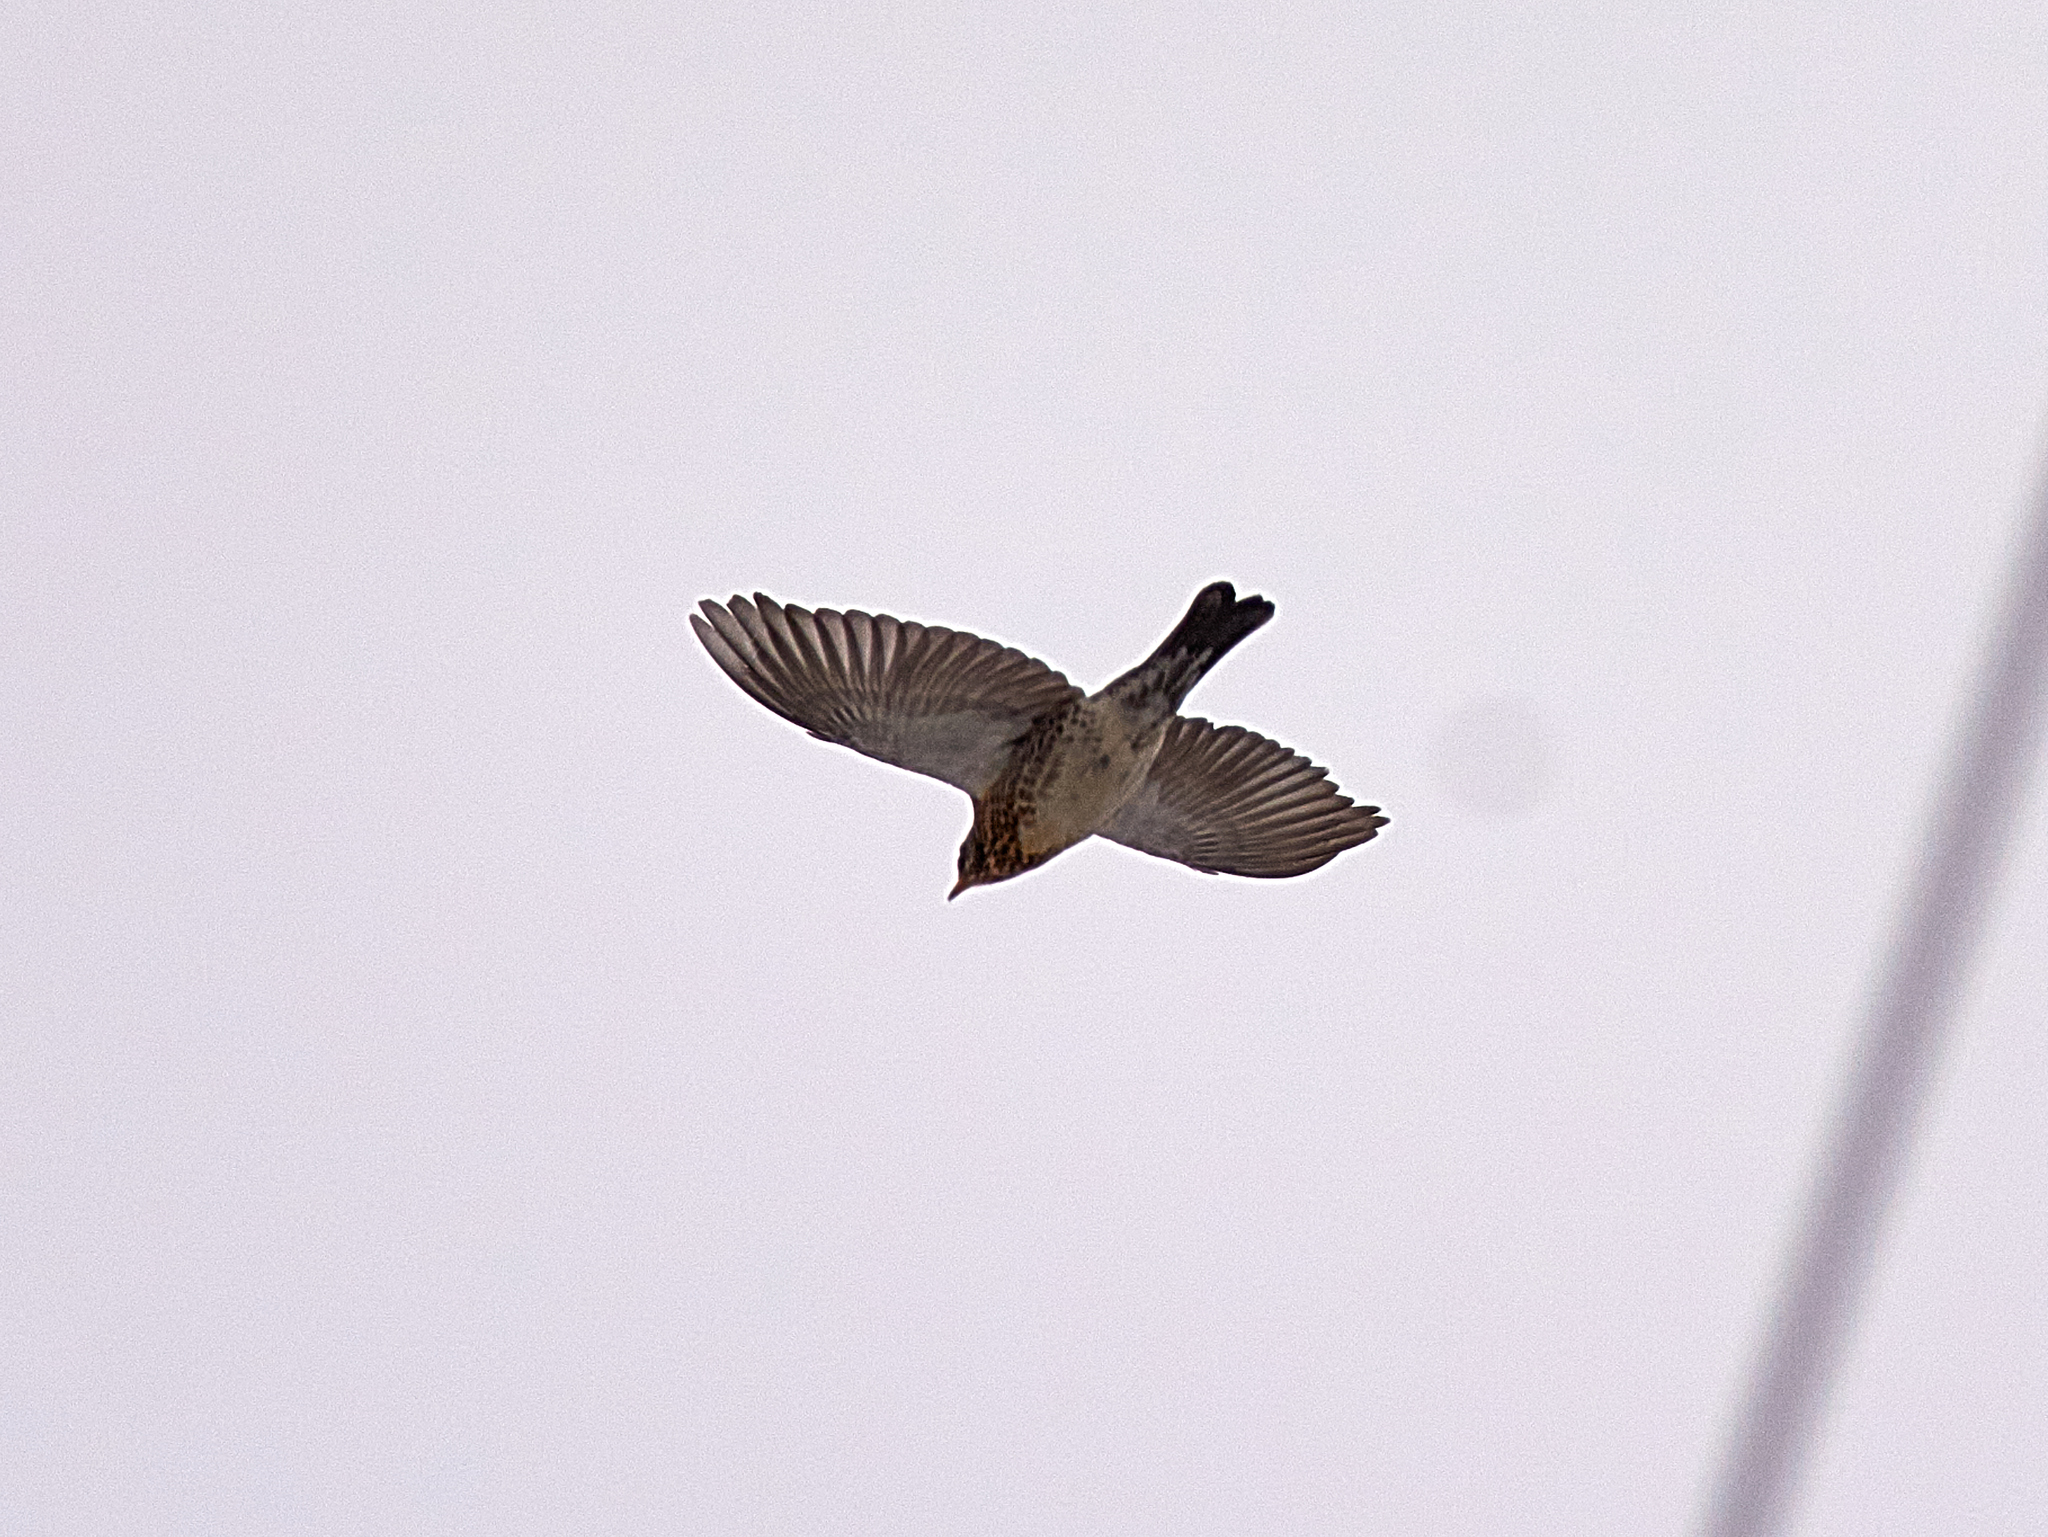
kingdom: Animalia
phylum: Chordata
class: Aves
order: Passeriformes
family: Turdidae
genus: Turdus
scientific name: Turdus pilaris
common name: Fieldfare
